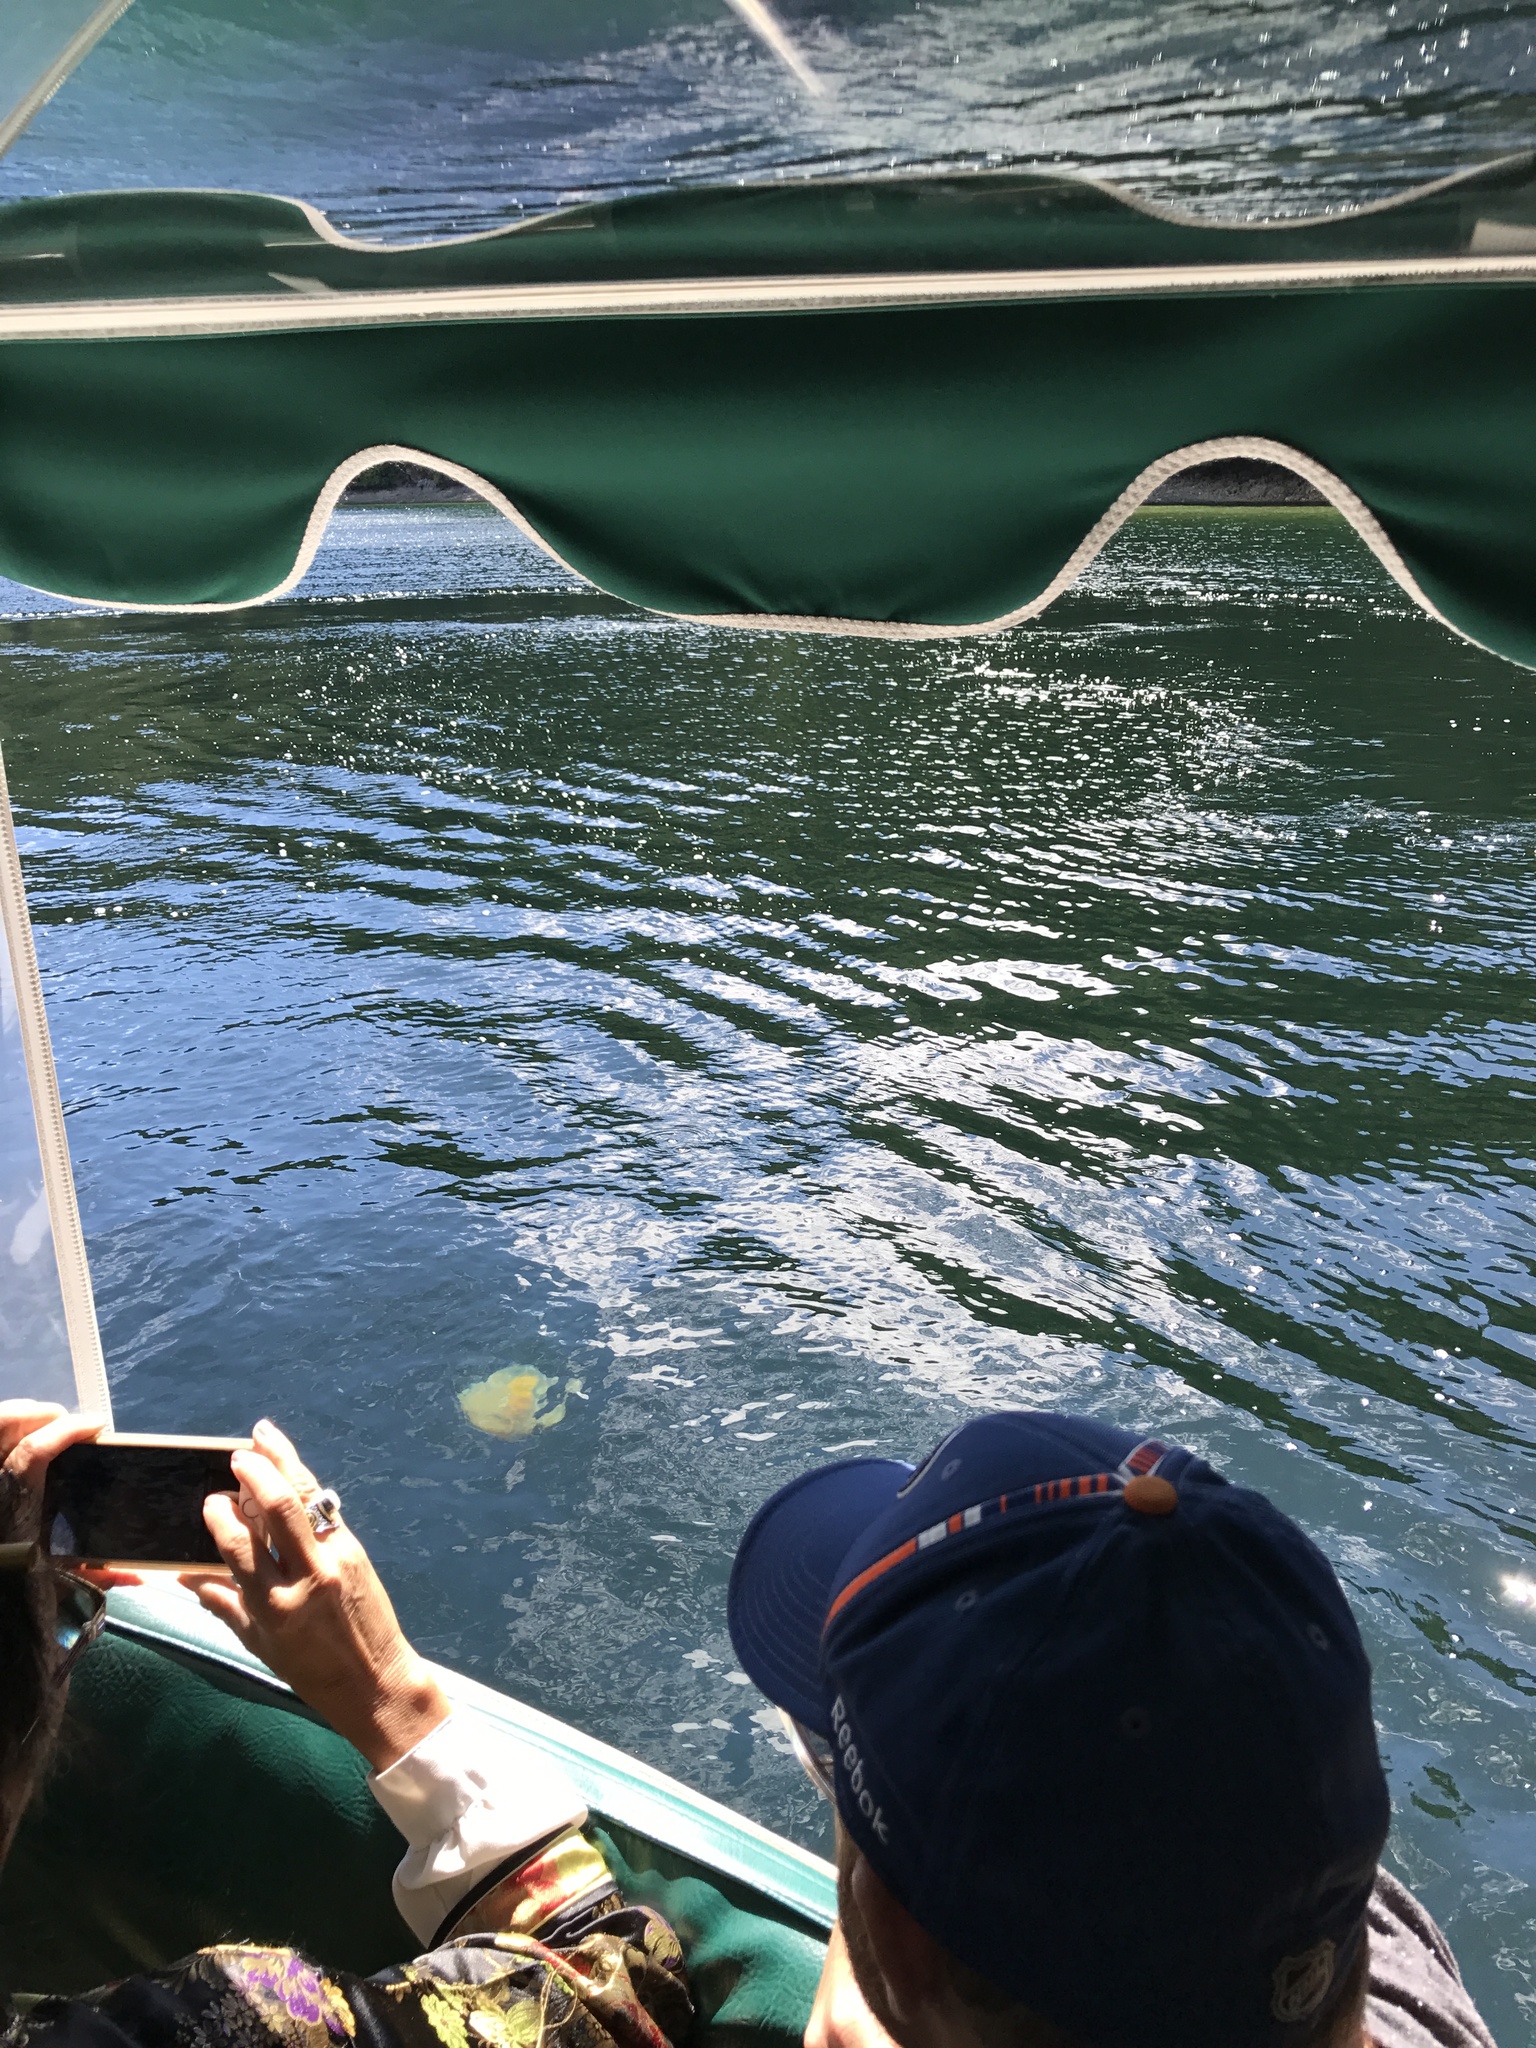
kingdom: Animalia
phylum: Cnidaria
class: Scyphozoa
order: Semaeostomeae
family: Phacellophoridae
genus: Phacellophora
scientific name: Phacellophora camtschatica
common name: Fried-egg jellyfish
